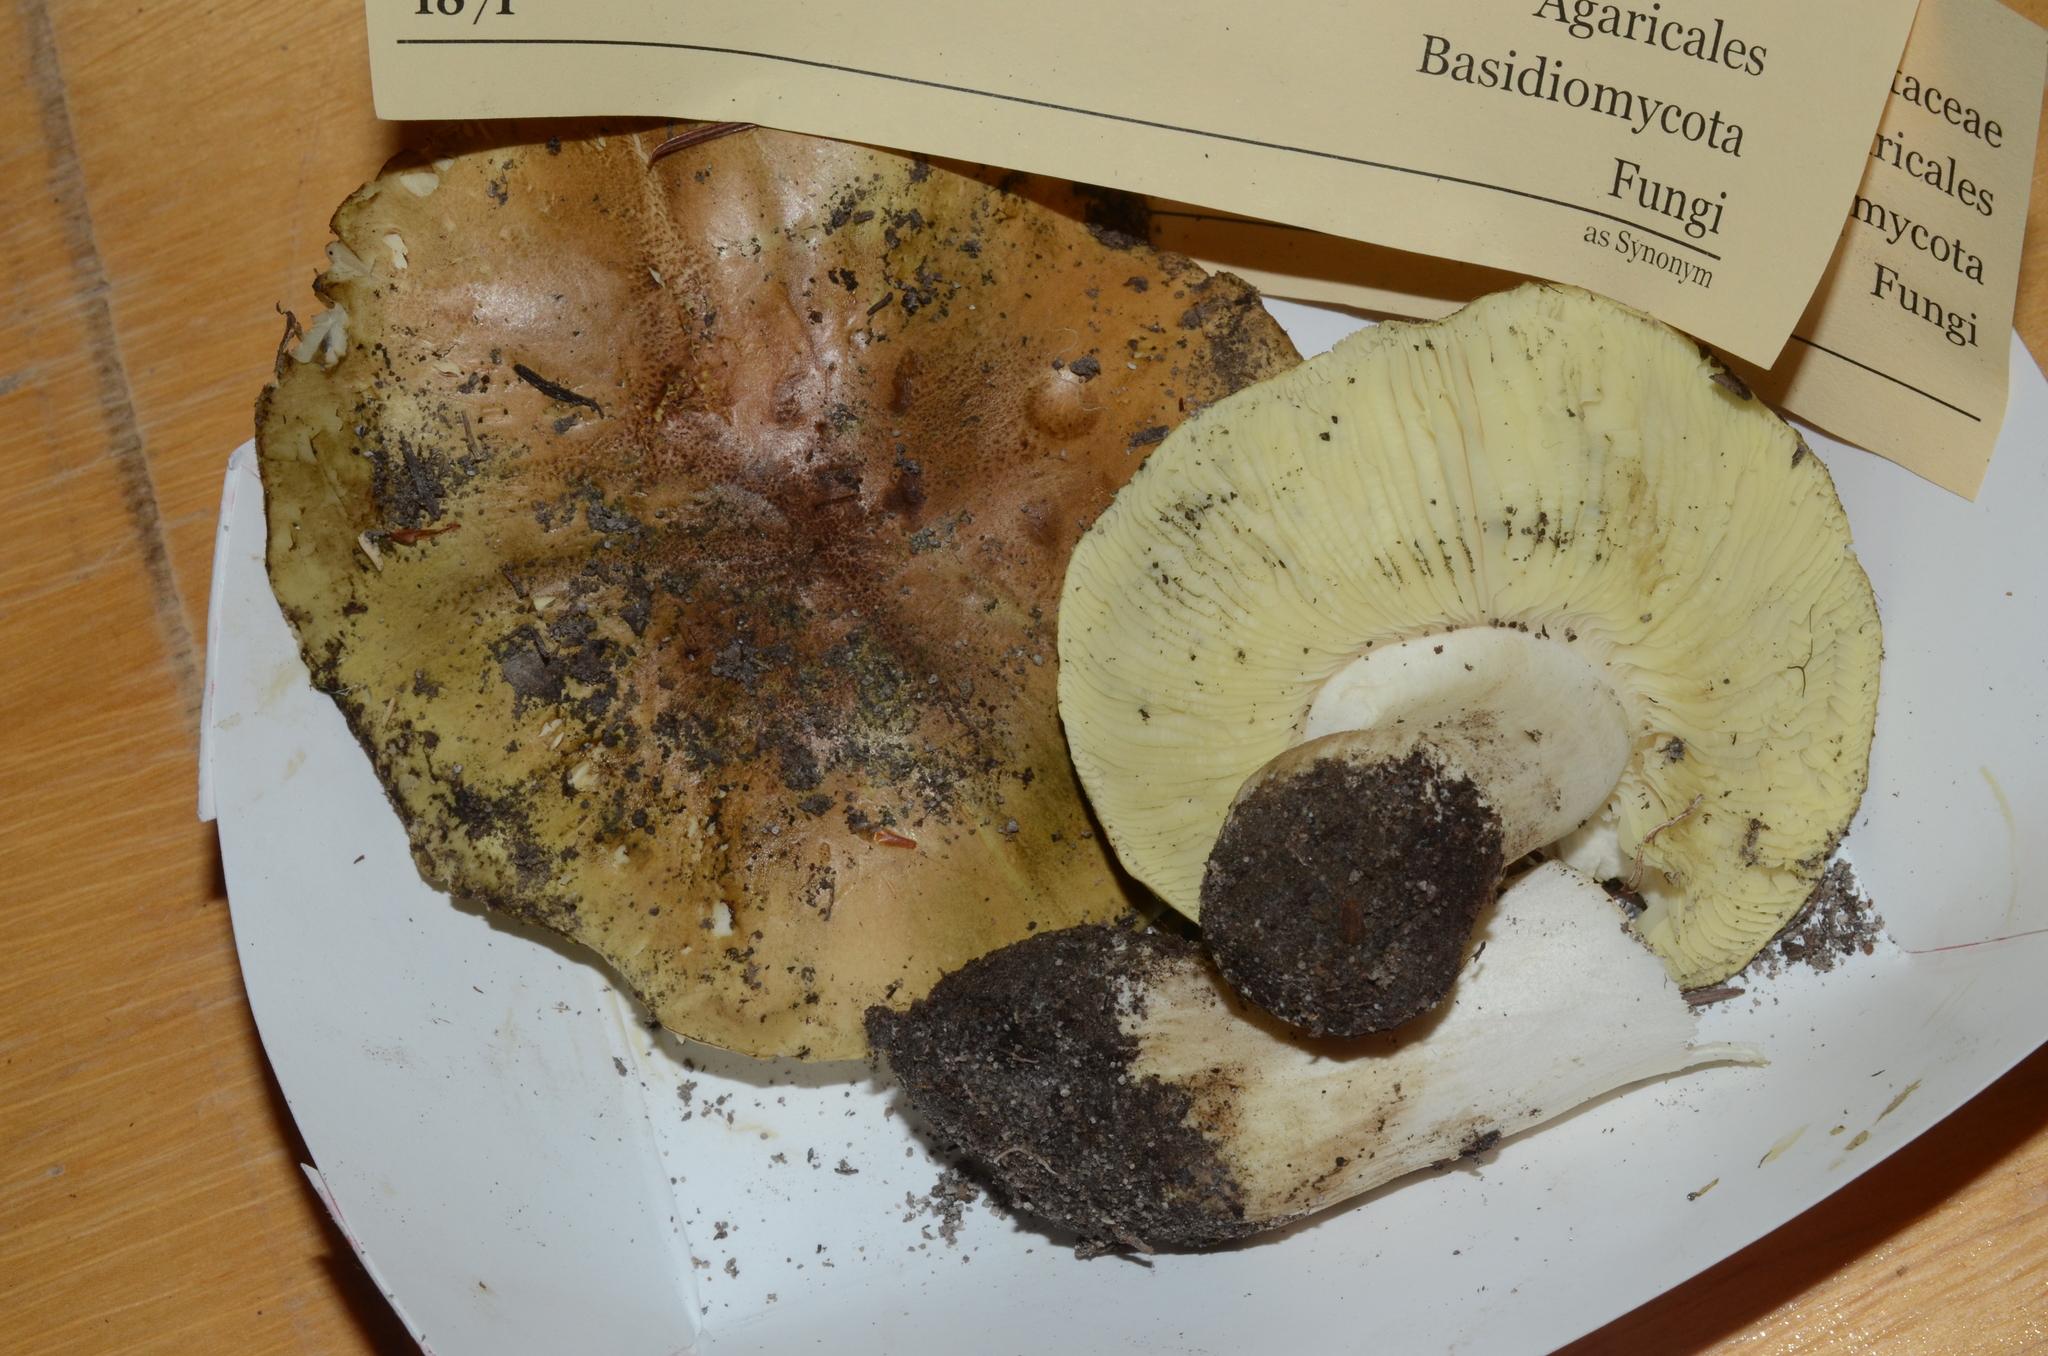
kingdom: Fungi
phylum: Basidiomycota
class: Agaricomycetes
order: Agaricales
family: Tricholomataceae
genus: Tricholoma
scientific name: Tricholoma equestre
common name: Yellow knight
